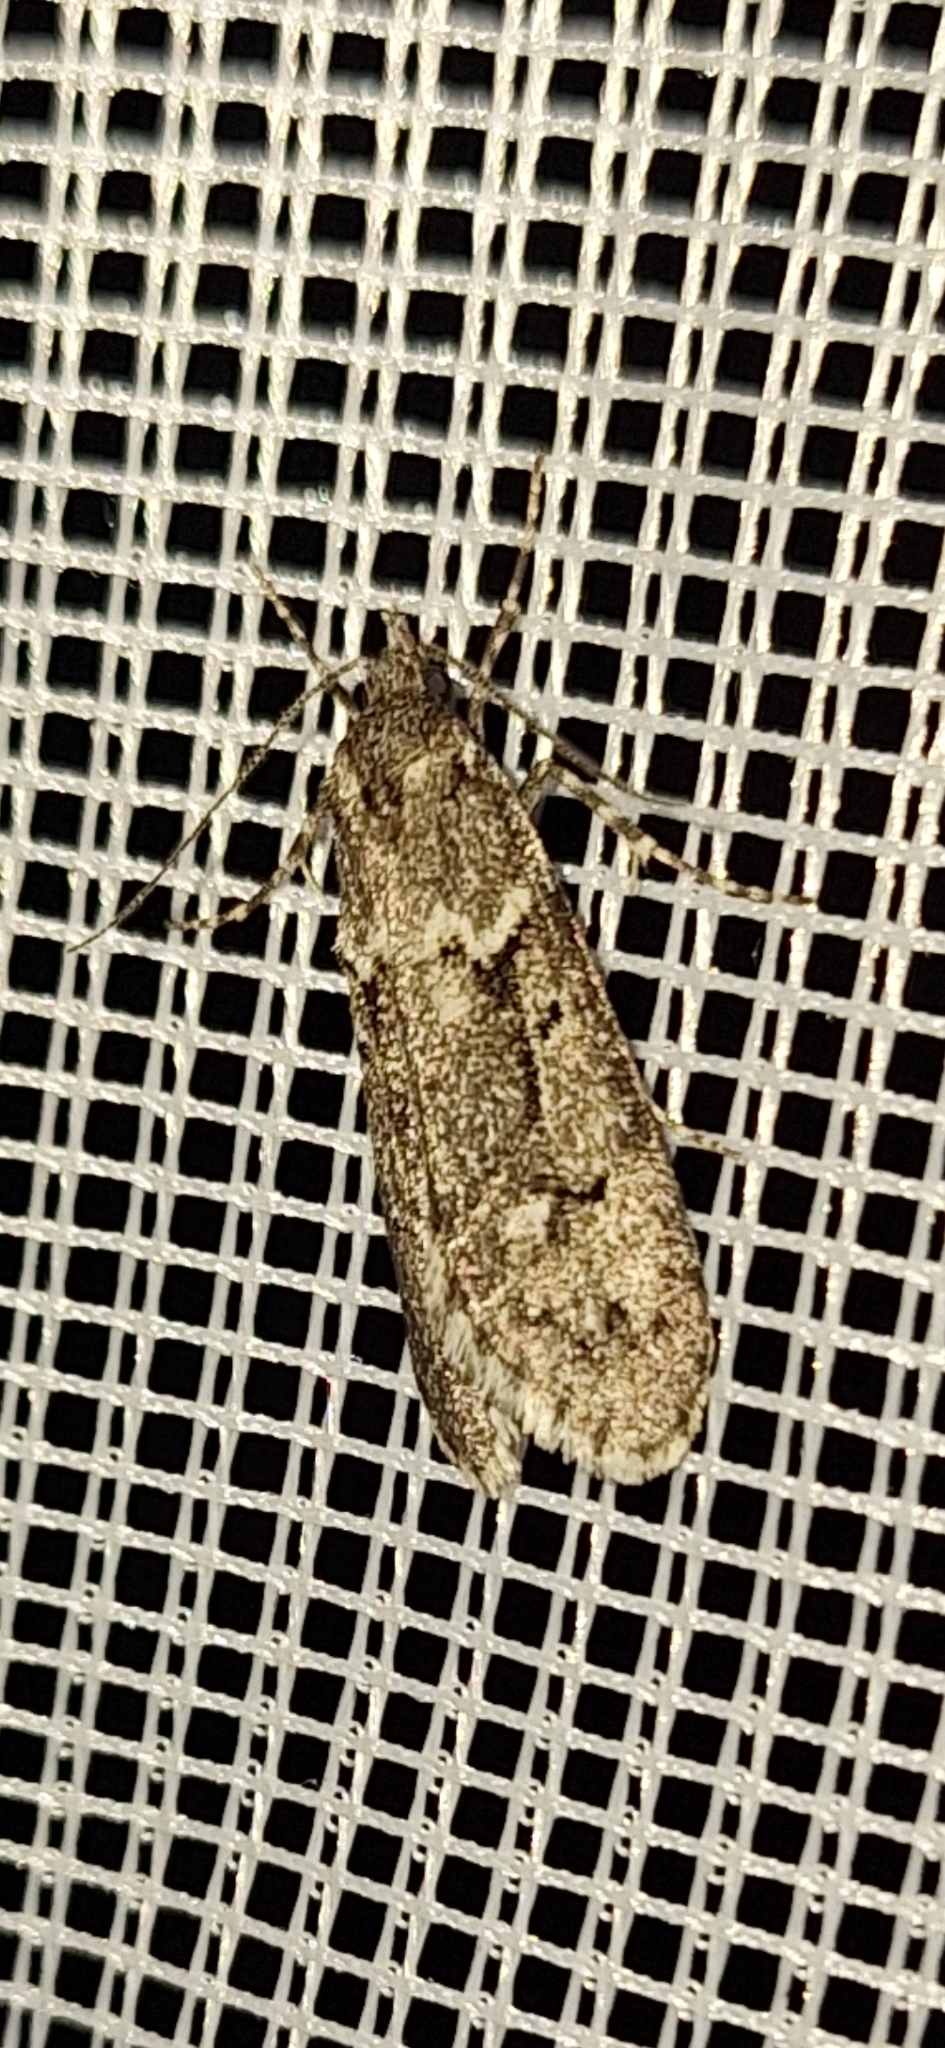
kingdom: Animalia
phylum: Arthropoda
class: Insecta
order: Lepidoptera
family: Lypusidae
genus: Diurnea
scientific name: Diurnea fagella
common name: March tubic
